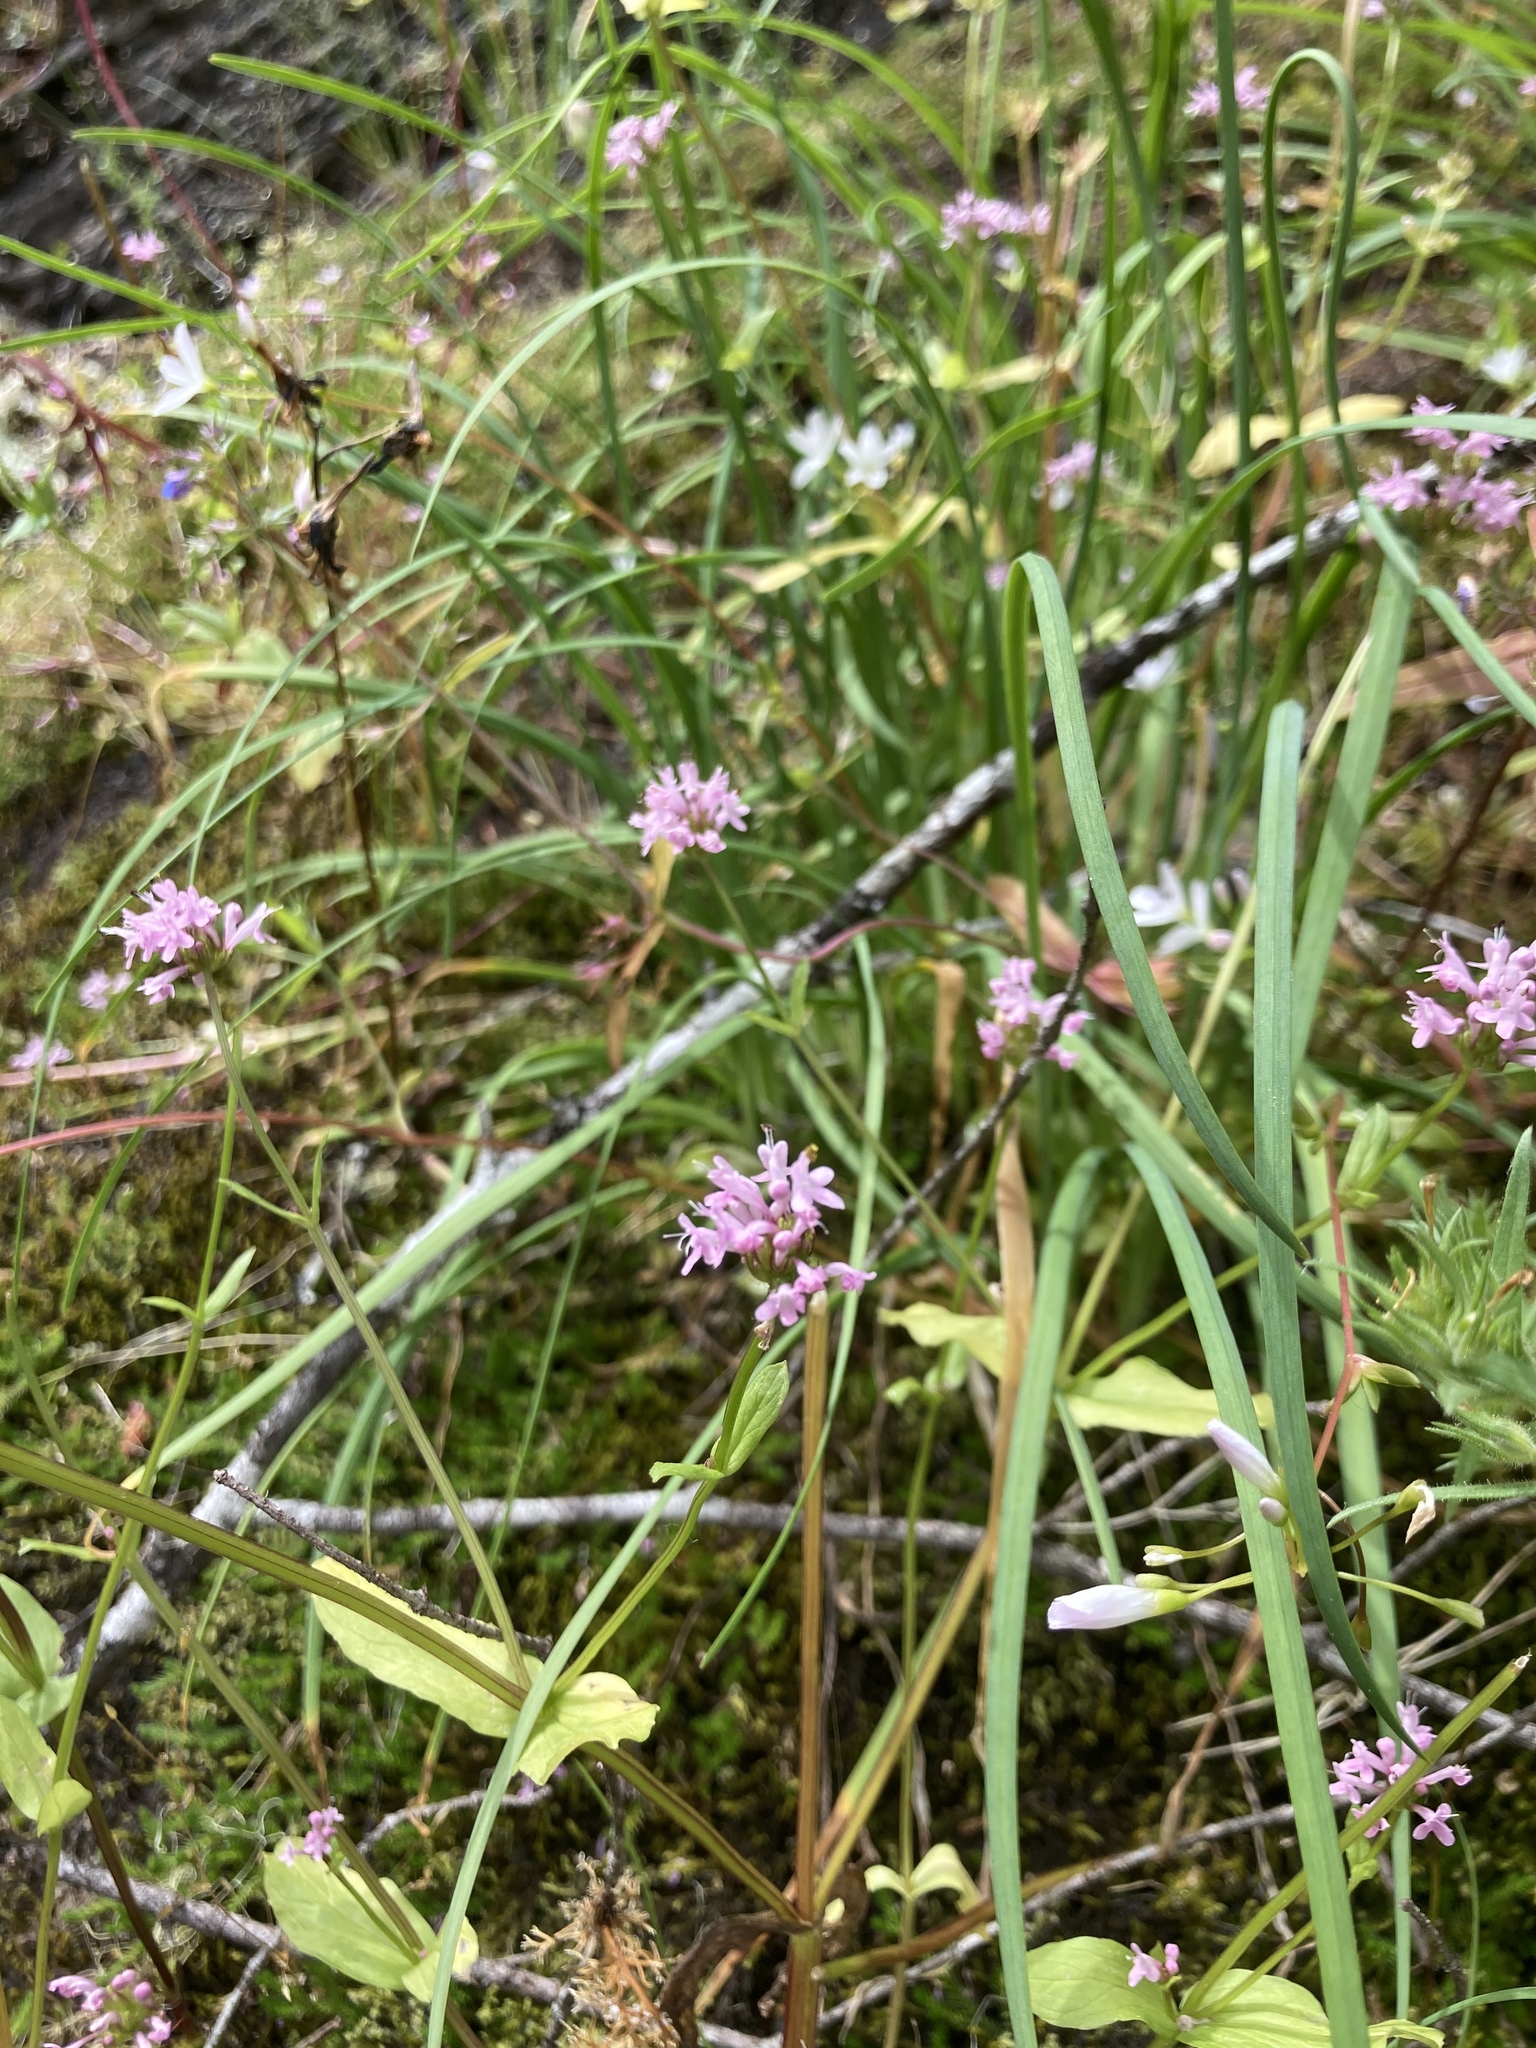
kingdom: Plantae
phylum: Tracheophyta
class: Magnoliopsida
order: Dipsacales
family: Caprifoliaceae
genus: Plectritis
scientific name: Plectritis congesta
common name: Pink plectritis
